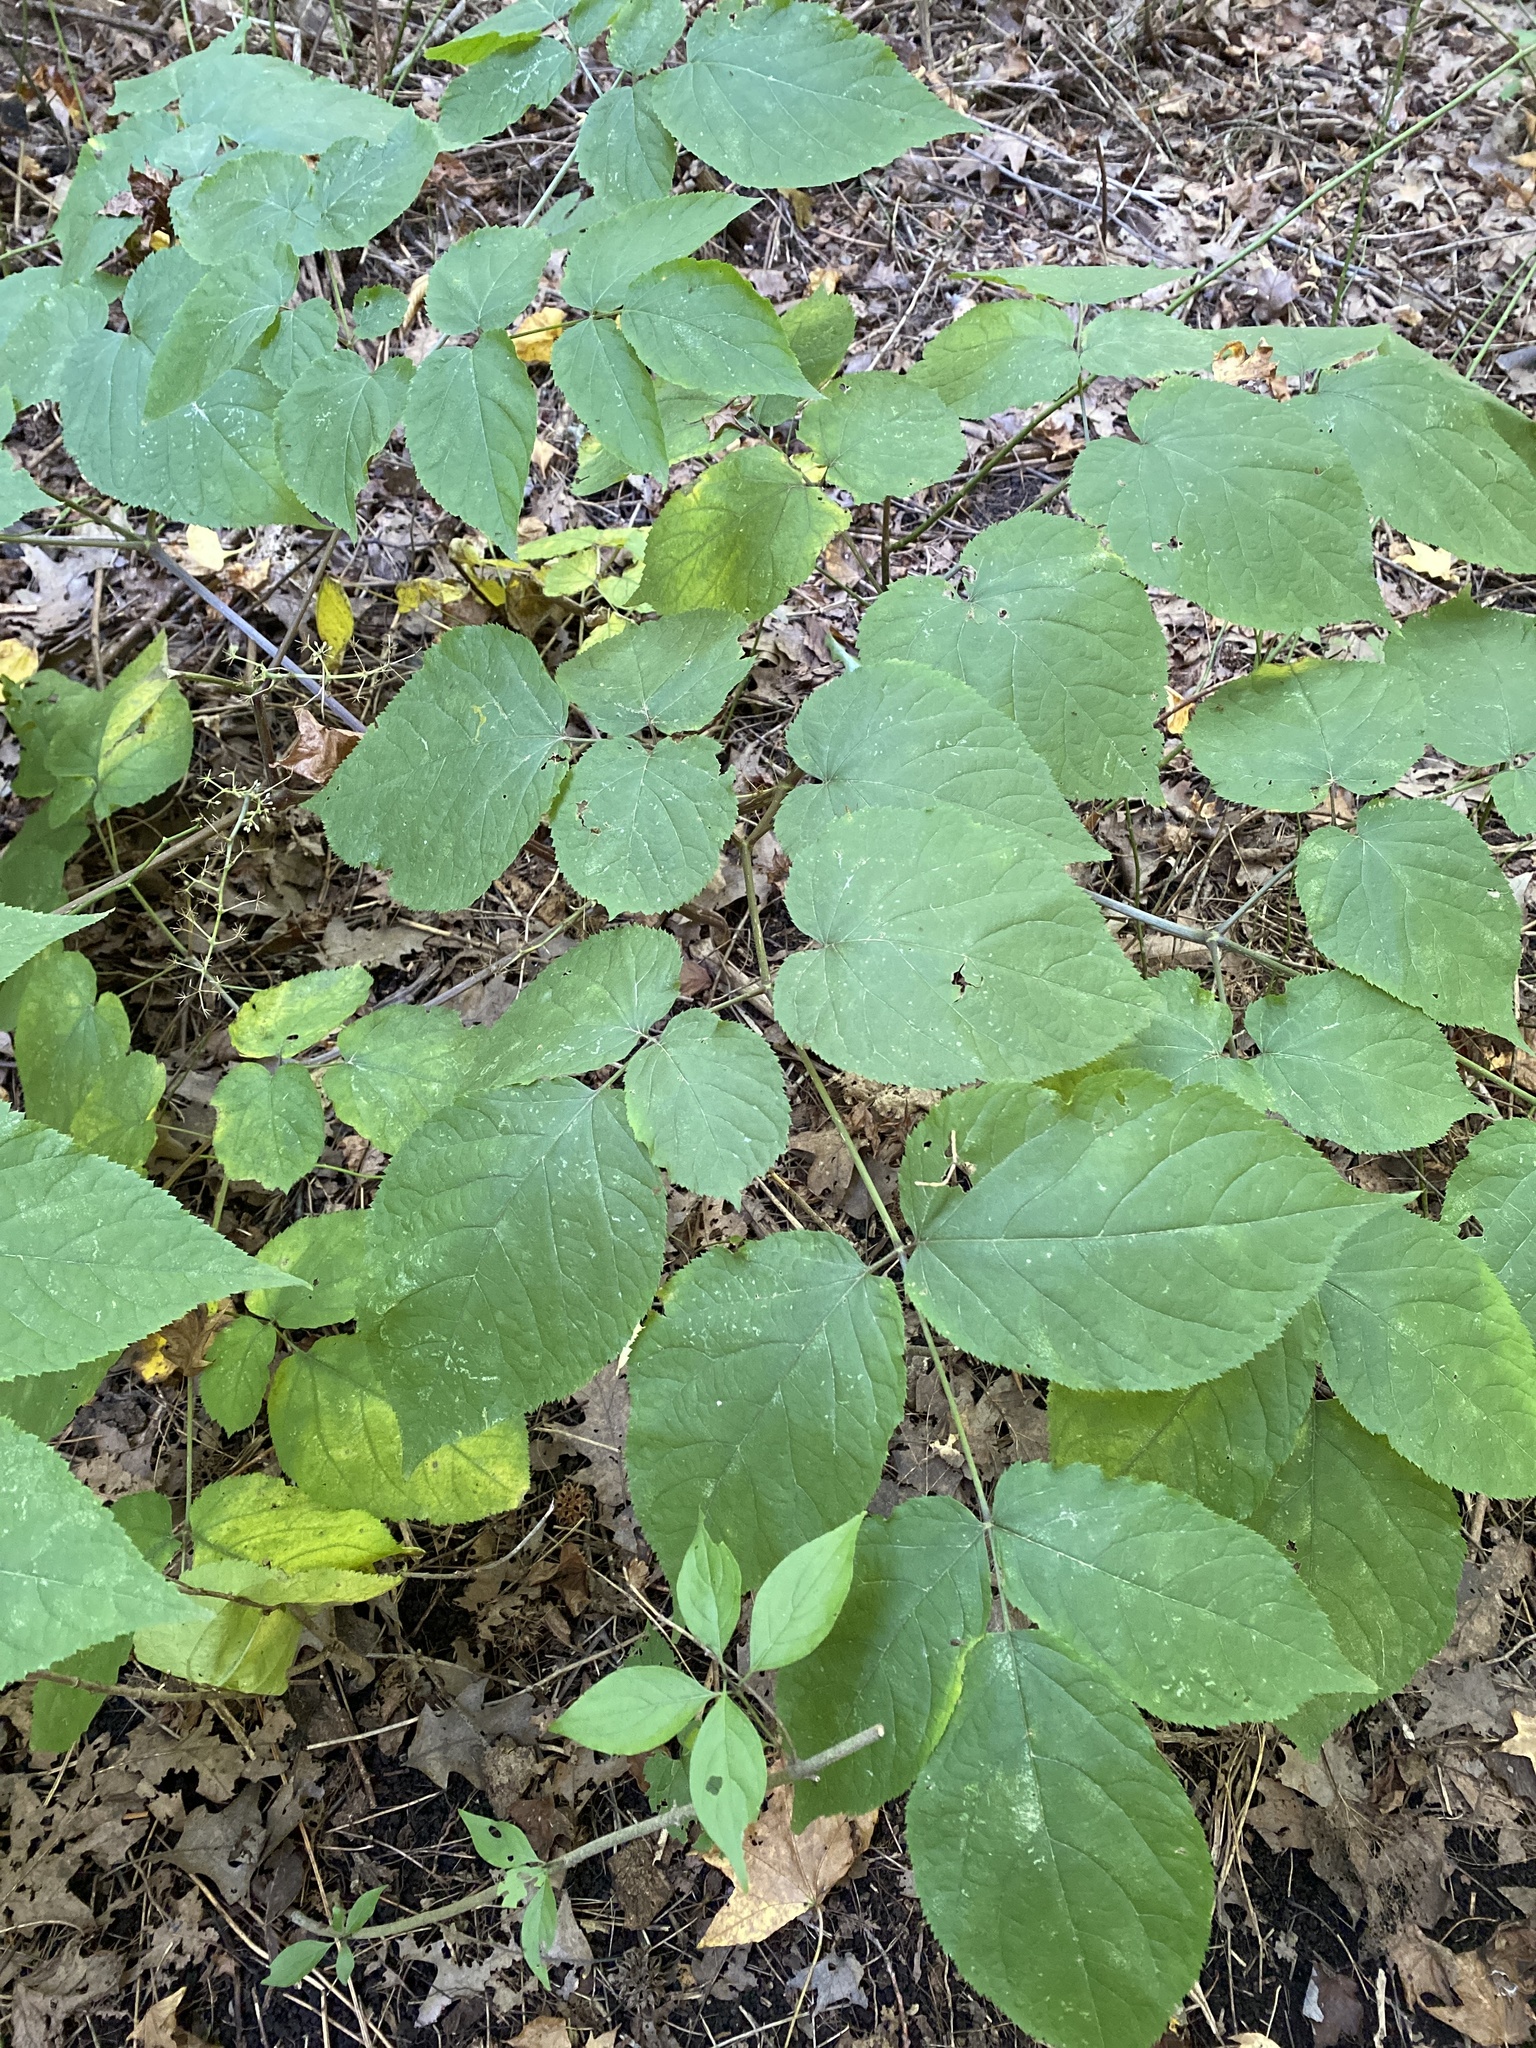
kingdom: Plantae
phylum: Tracheophyta
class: Magnoliopsida
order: Apiales
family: Araliaceae
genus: Aralia
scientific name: Aralia racemosa
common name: American-spikenard
